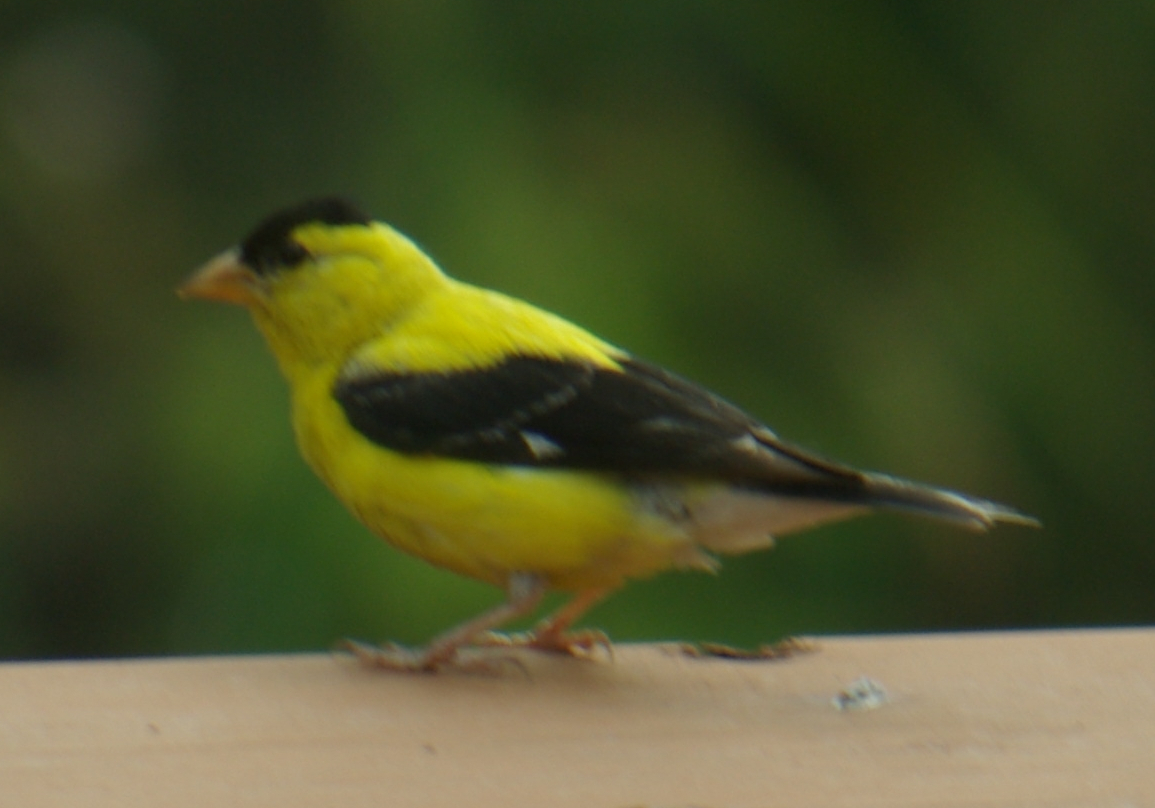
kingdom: Animalia
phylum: Chordata
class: Aves
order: Passeriformes
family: Fringillidae
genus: Spinus
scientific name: Spinus tristis
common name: American goldfinch
